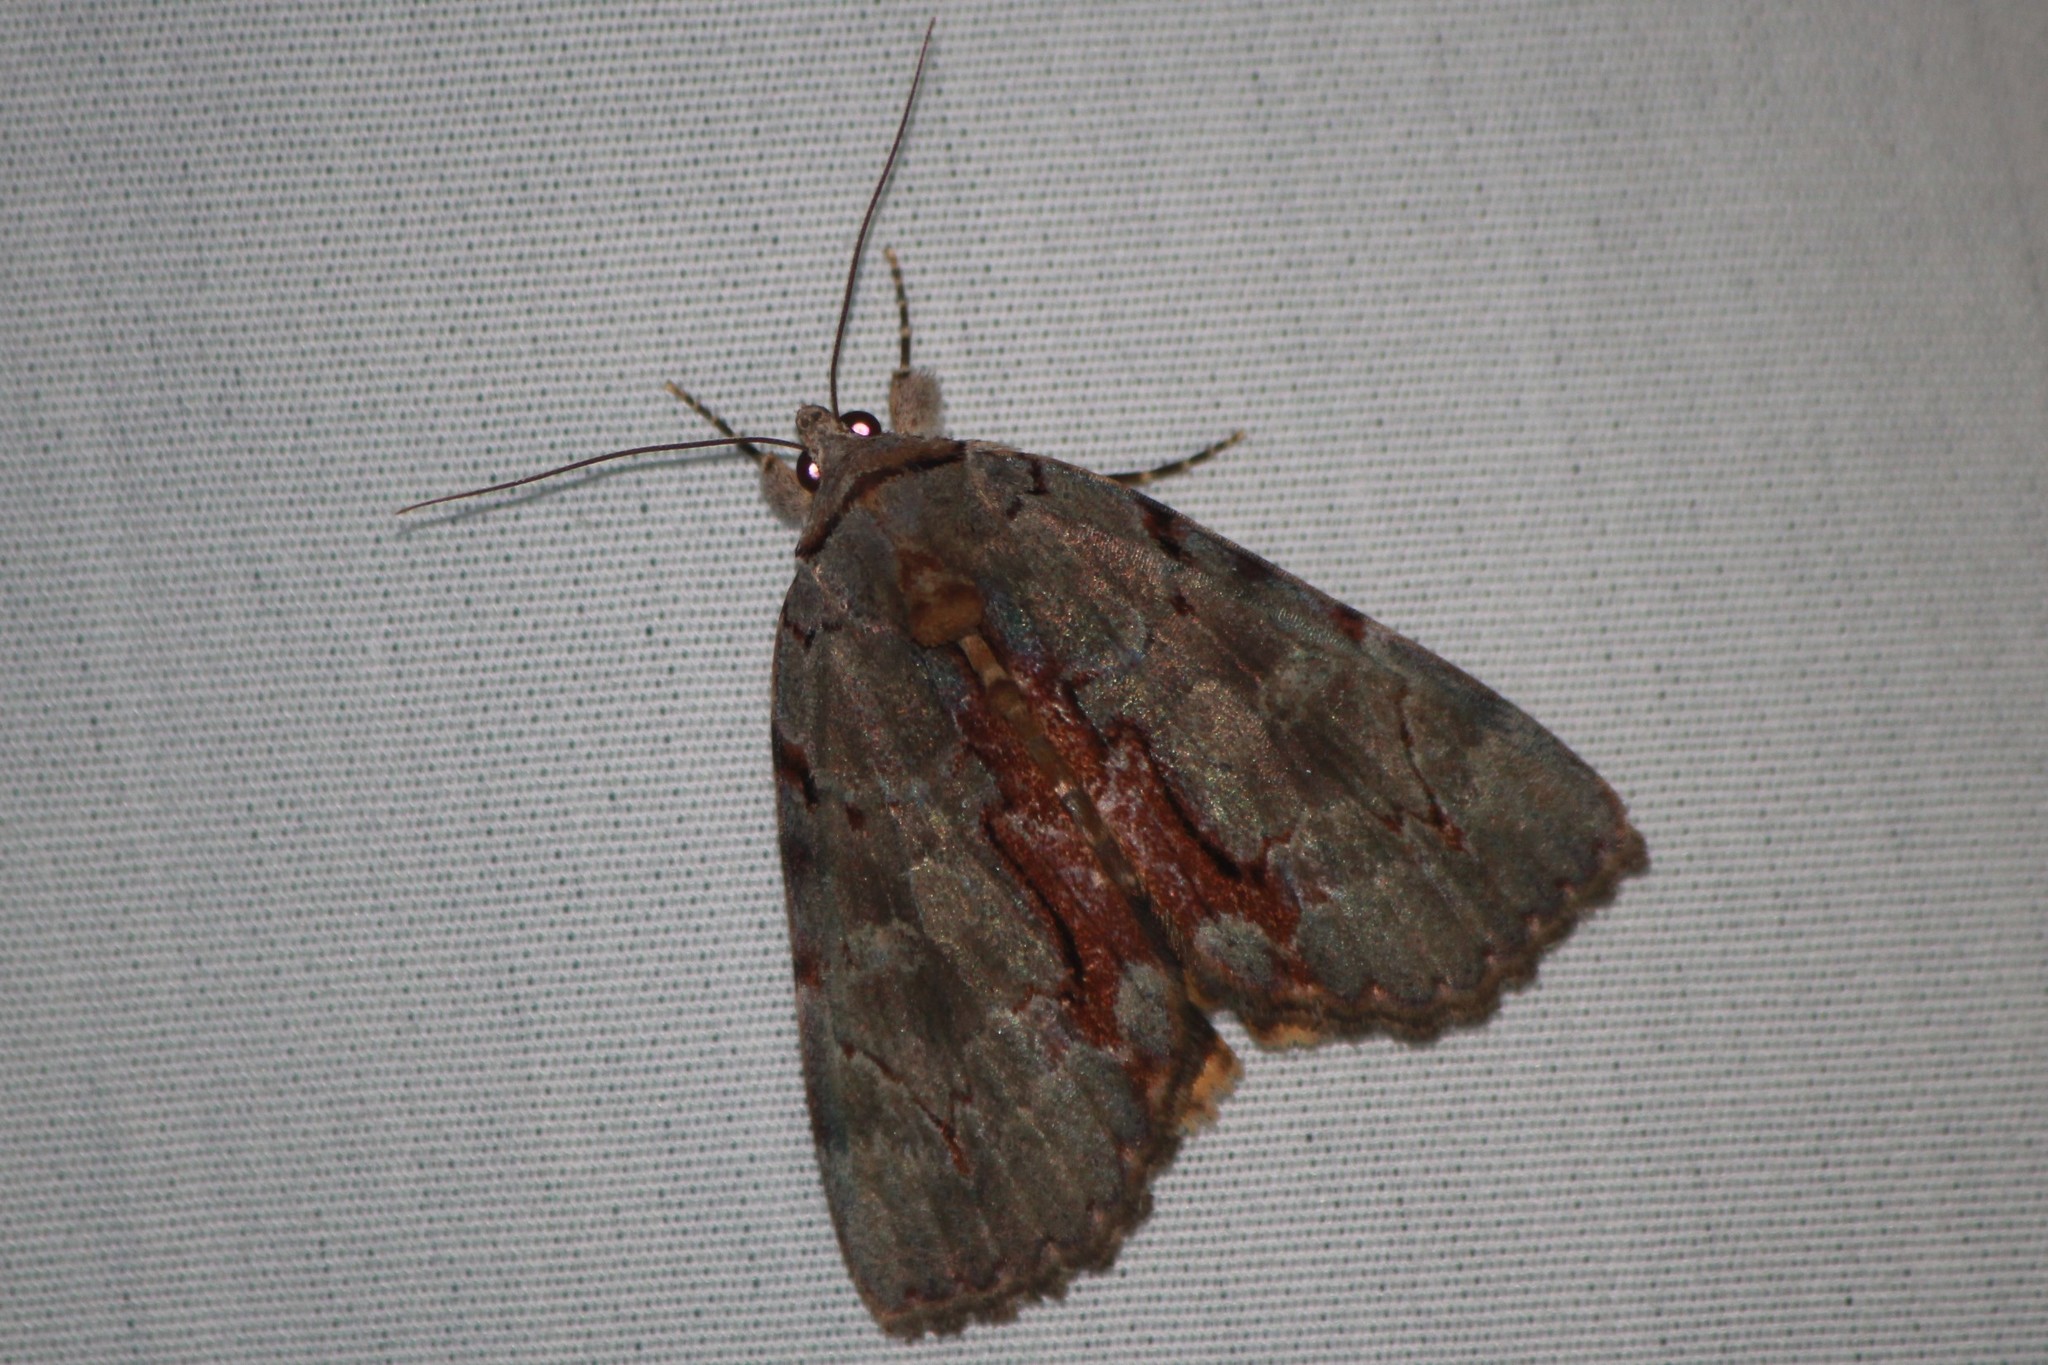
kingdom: Animalia
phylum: Arthropoda
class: Insecta
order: Lepidoptera
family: Erebidae
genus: Catocala
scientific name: Catocala grynea
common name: Woody underwing
